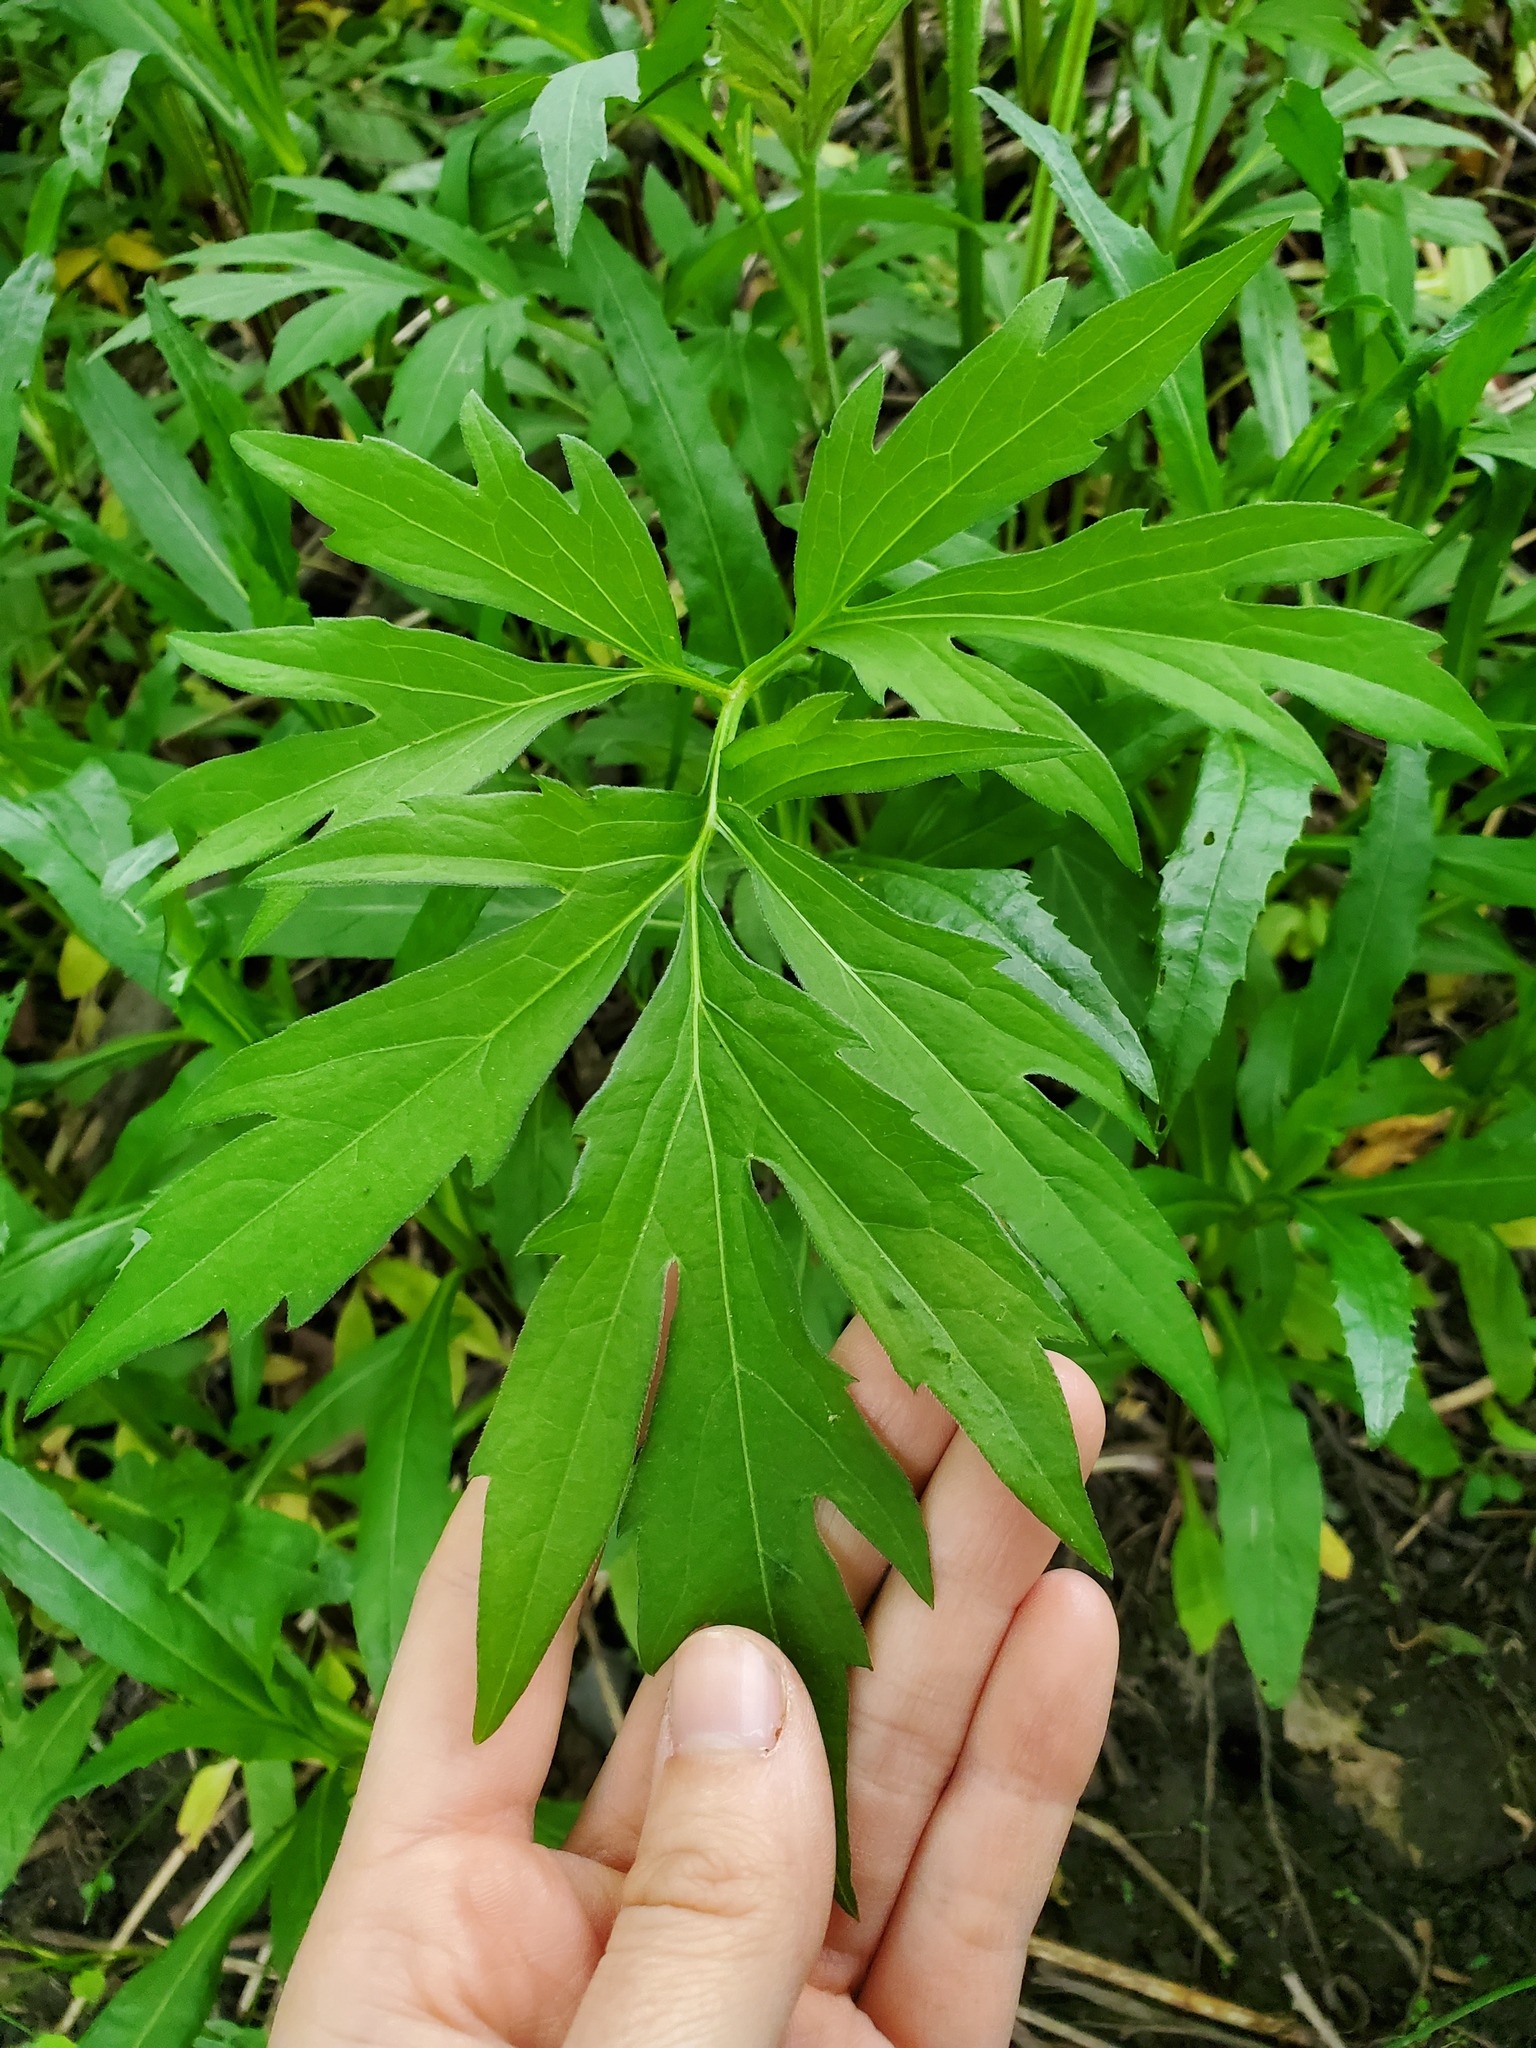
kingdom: Plantae
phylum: Tracheophyta
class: Magnoliopsida
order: Asterales
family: Asteraceae
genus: Rudbeckia
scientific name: Rudbeckia laciniata
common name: Coneflower
